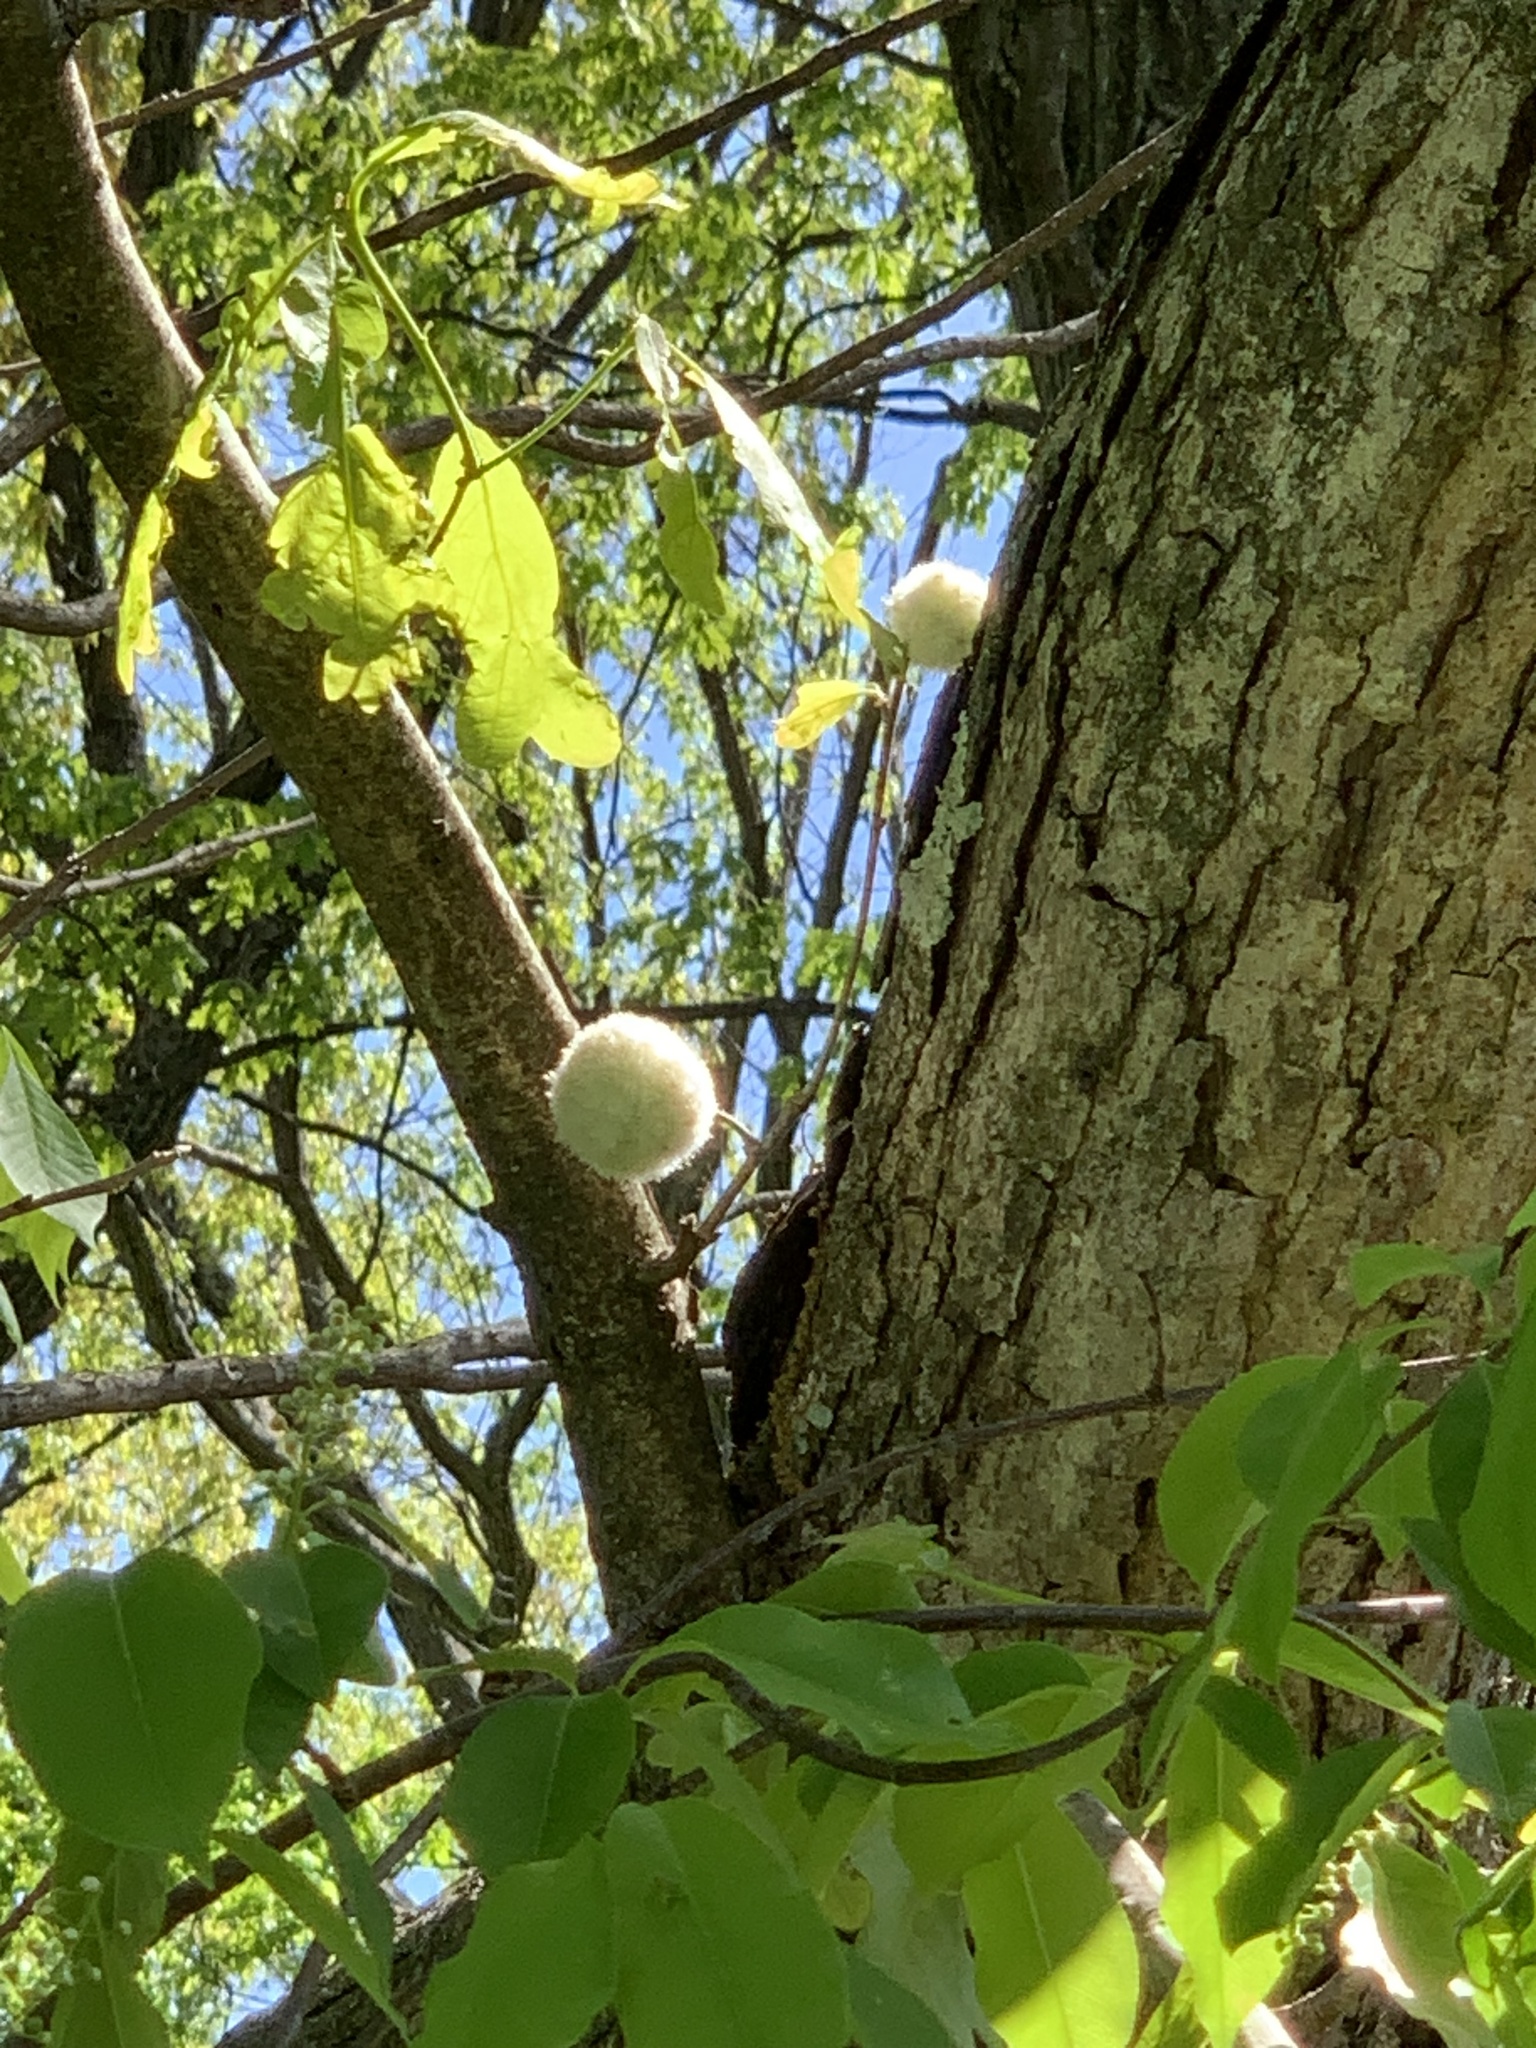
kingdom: Animalia
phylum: Arthropoda
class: Insecta
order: Hymenoptera
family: Cynipidae
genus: Callirhytis
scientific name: Callirhytis
